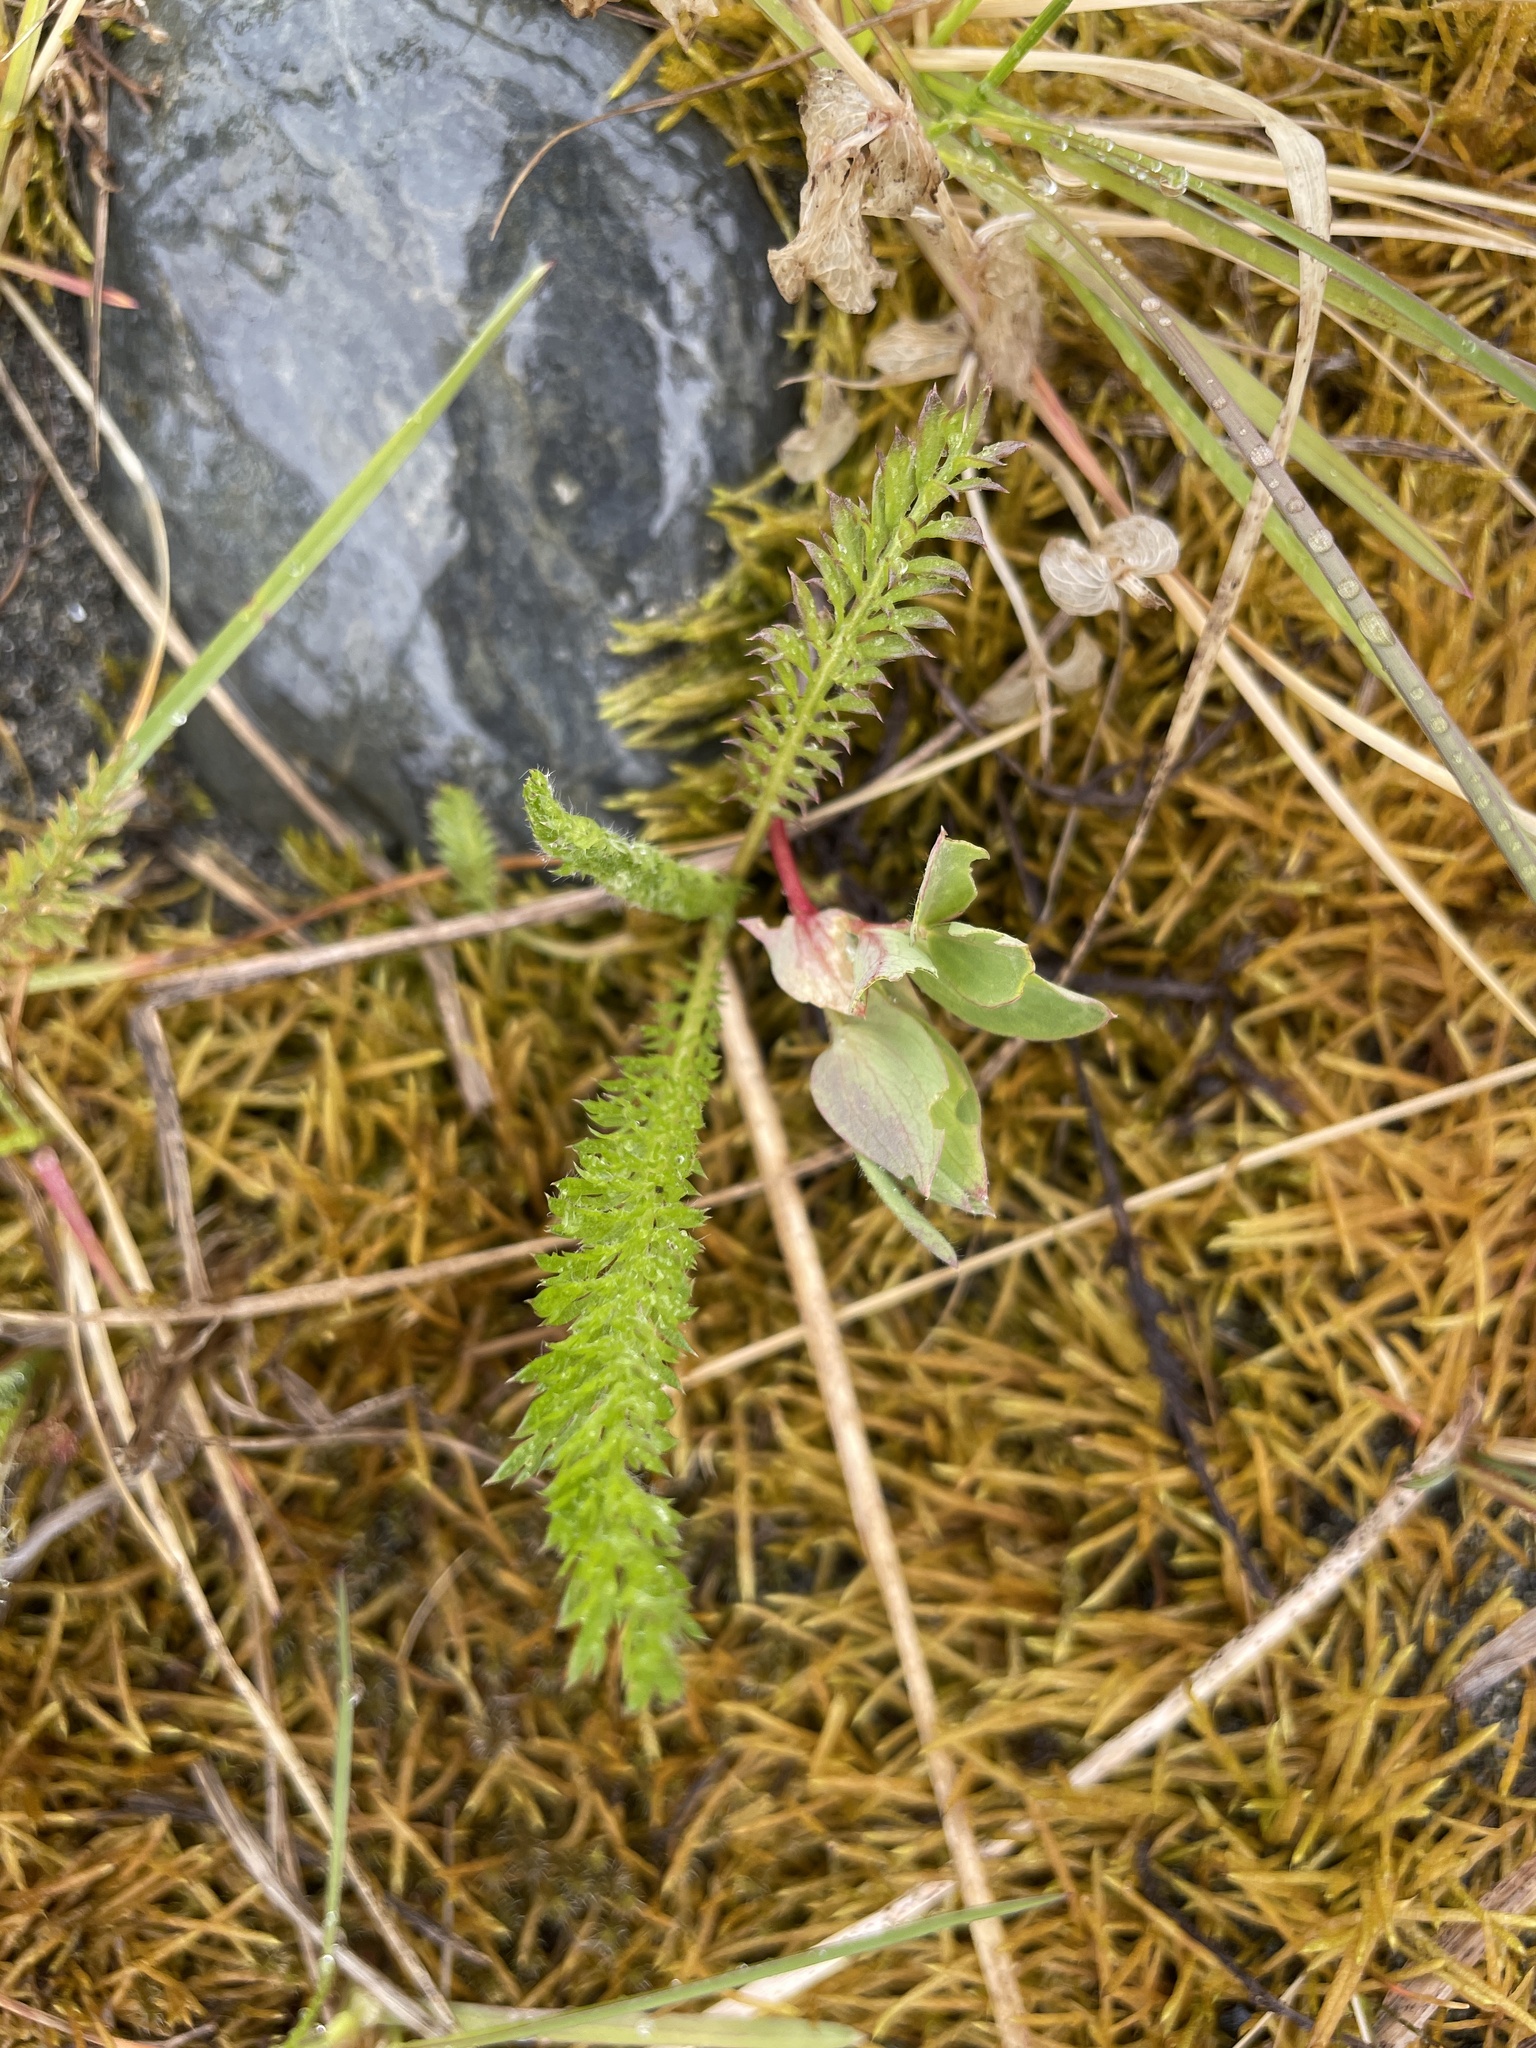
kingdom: Plantae
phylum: Tracheophyta
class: Magnoliopsida
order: Asterales
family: Asteraceae
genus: Achillea
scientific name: Achillea millefolium
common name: Yarrow
